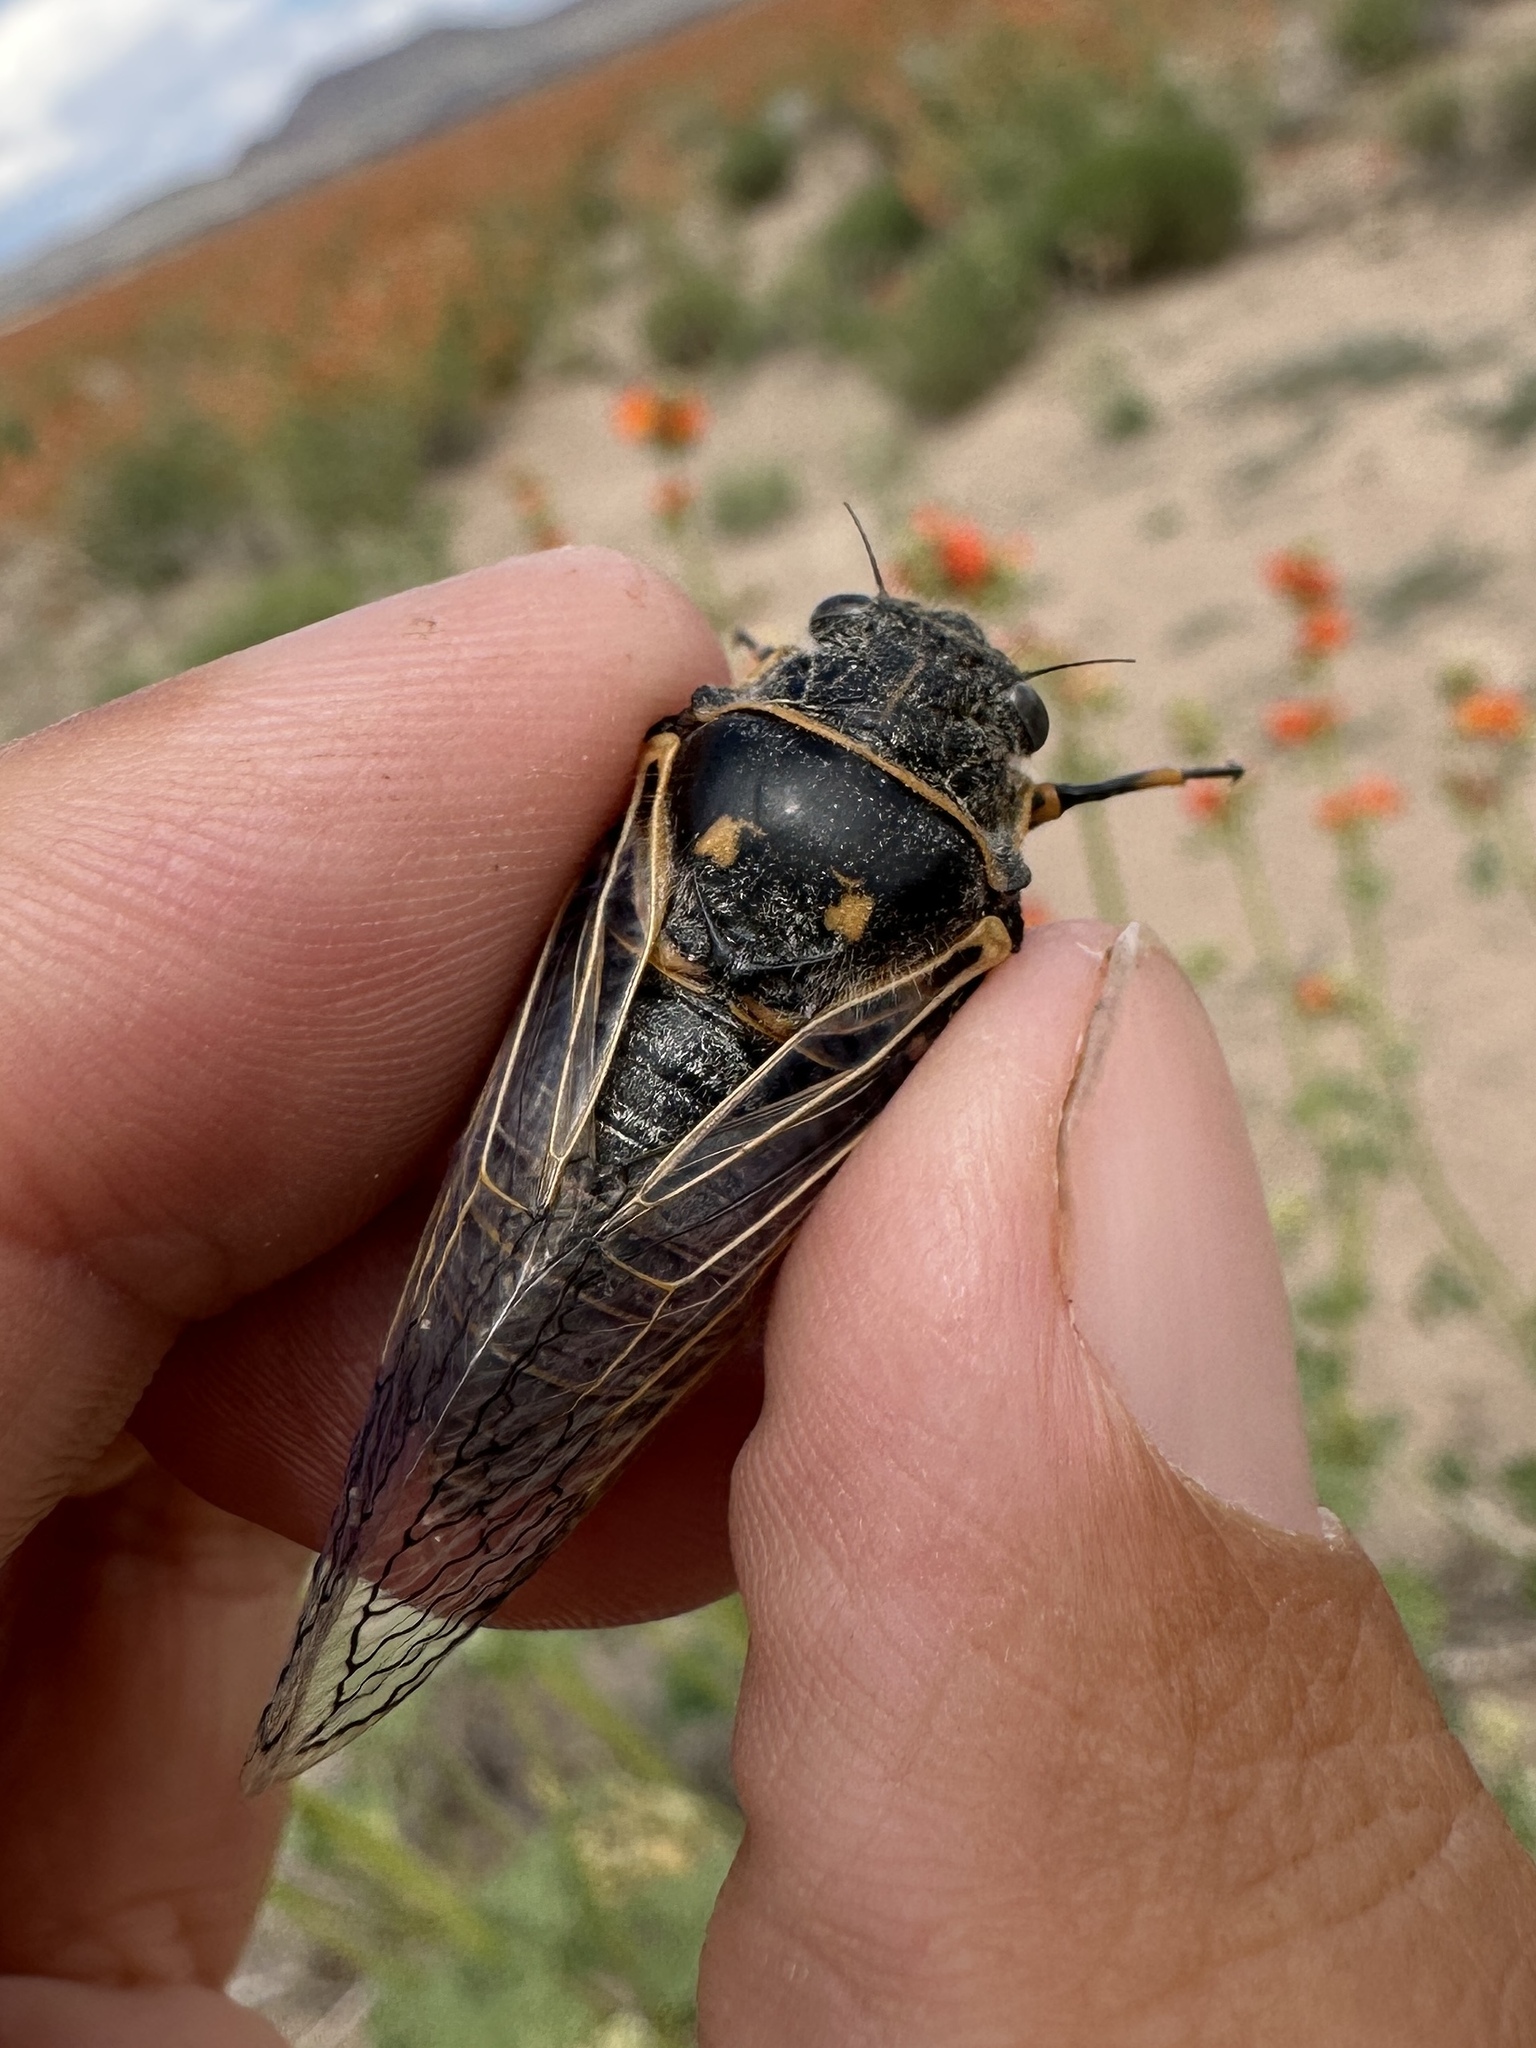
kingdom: Animalia
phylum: Arthropoda
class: Insecta
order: Hemiptera
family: Cicadidae
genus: Okanagana
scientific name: Okanagana gibbera
